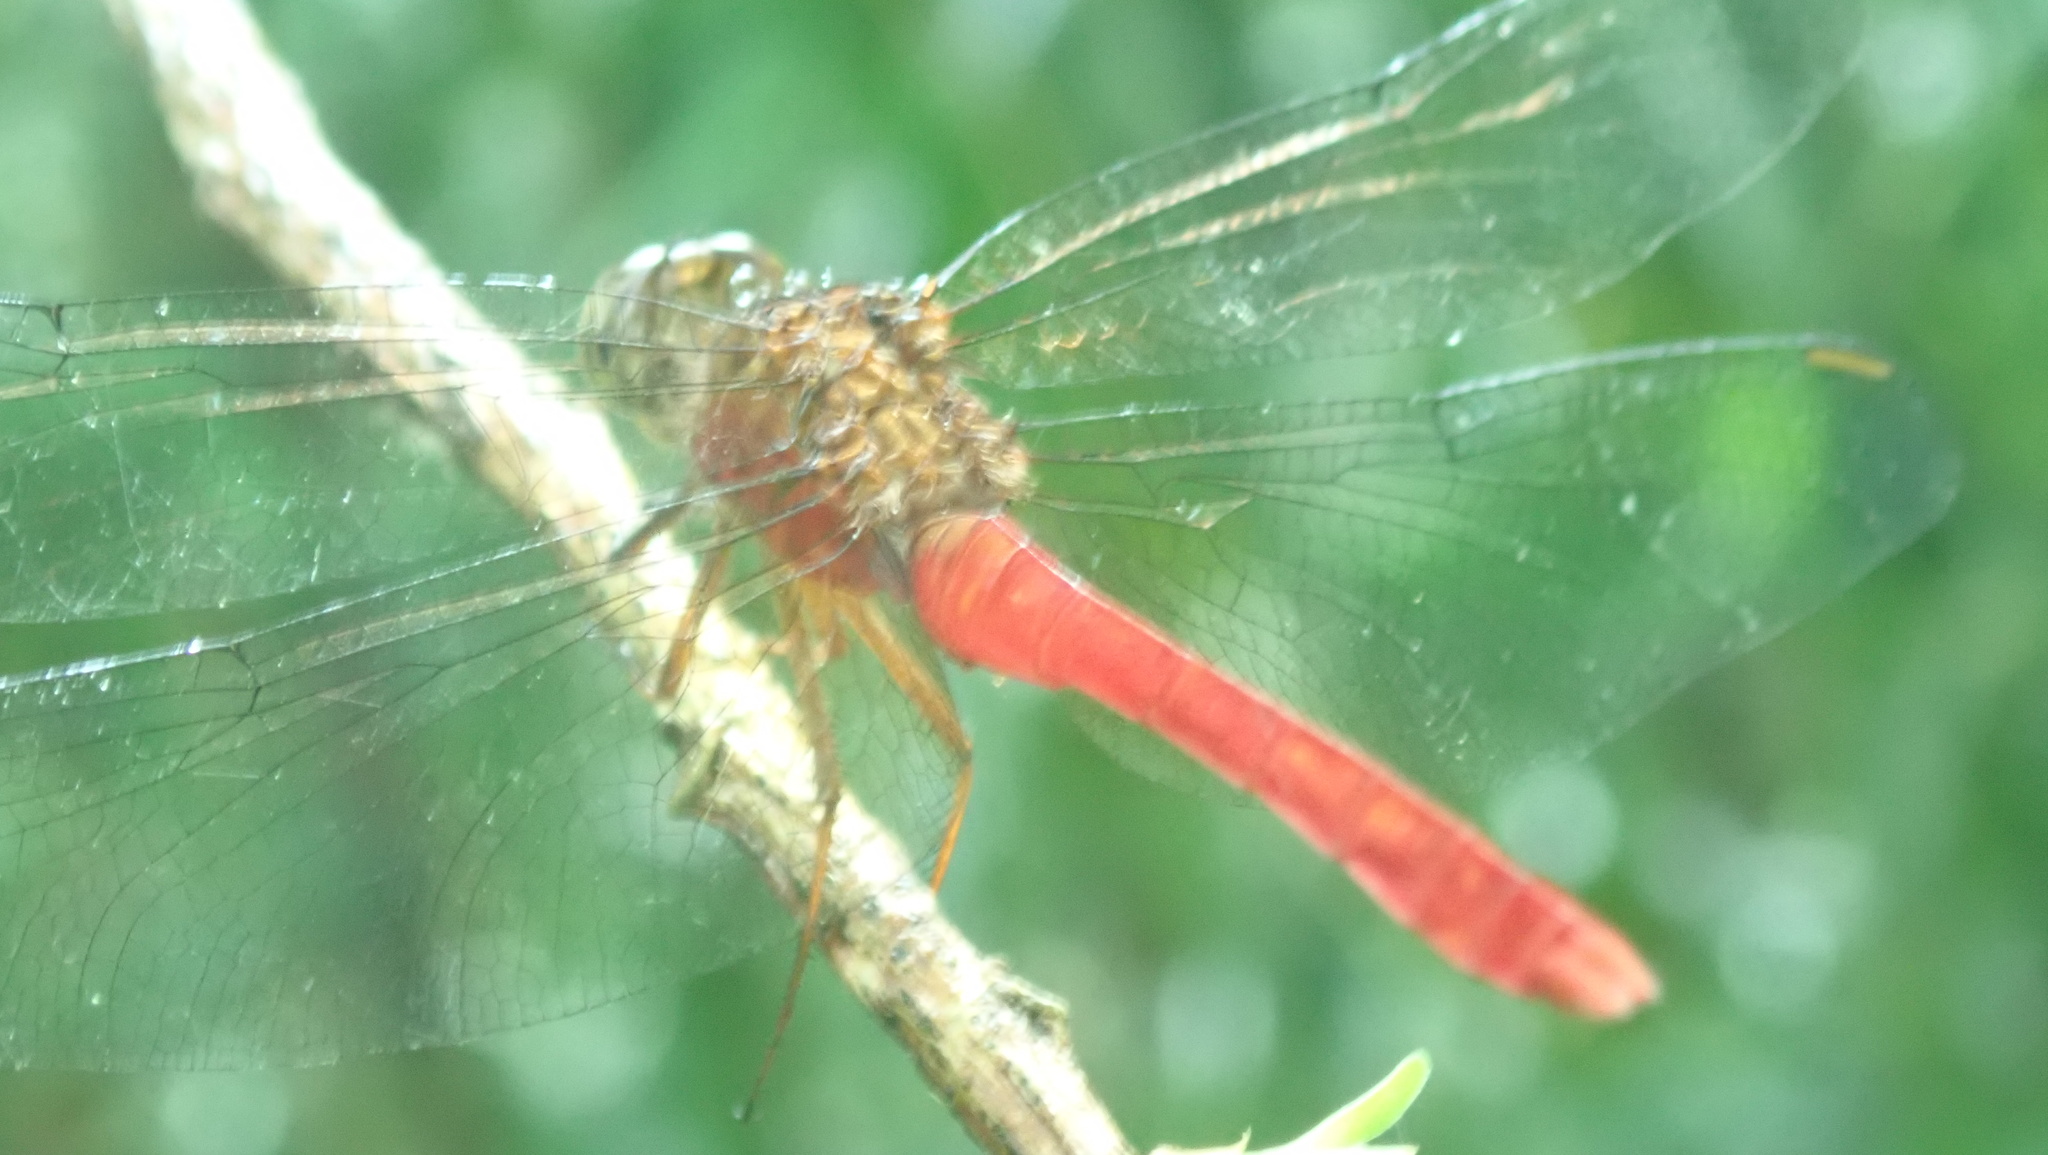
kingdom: Animalia
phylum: Arthropoda
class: Insecta
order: Odonata
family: Libellulidae
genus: Rhodopygia
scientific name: Rhodopygia hinei
